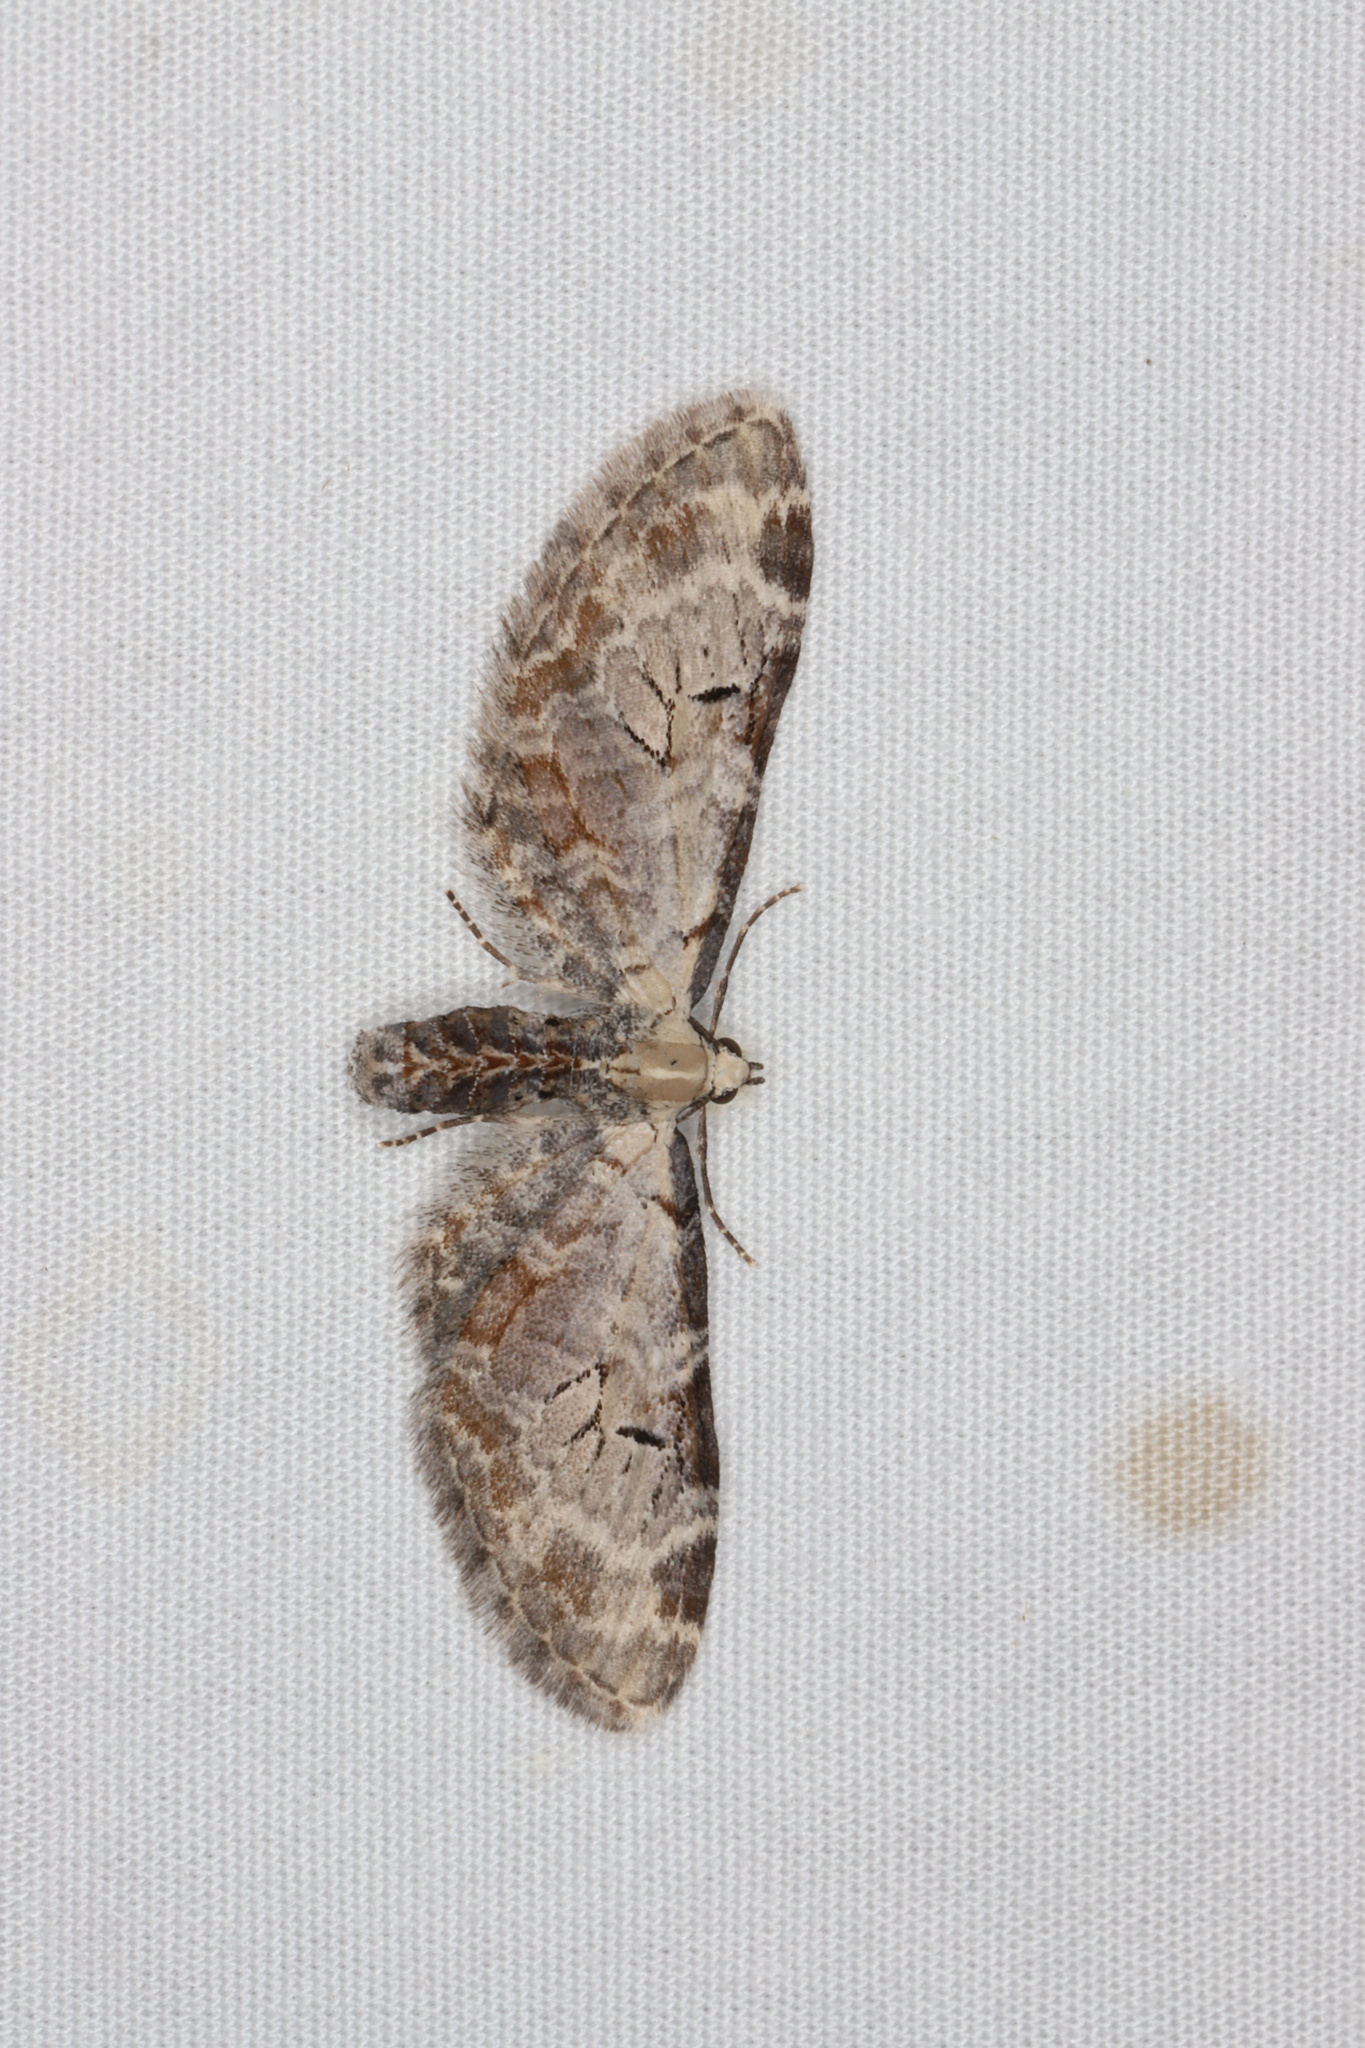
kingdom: Animalia
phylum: Arthropoda
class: Insecta
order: Lepidoptera
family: Geometridae
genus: Eupithecia
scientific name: Eupithecia ravocostaliata
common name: Great varigated pug
